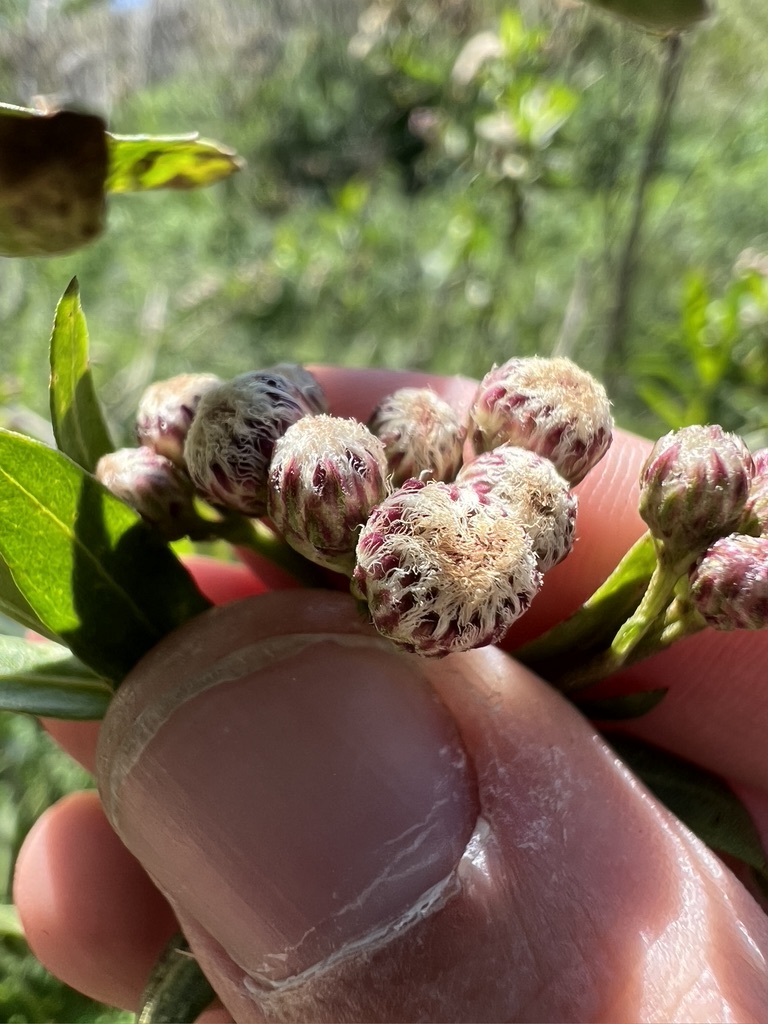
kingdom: Plantae
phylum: Tracheophyta
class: Magnoliopsida
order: Asterales
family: Asteraceae
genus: Baccharis
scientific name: Baccharis salicifolia
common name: Sticky baccharis
